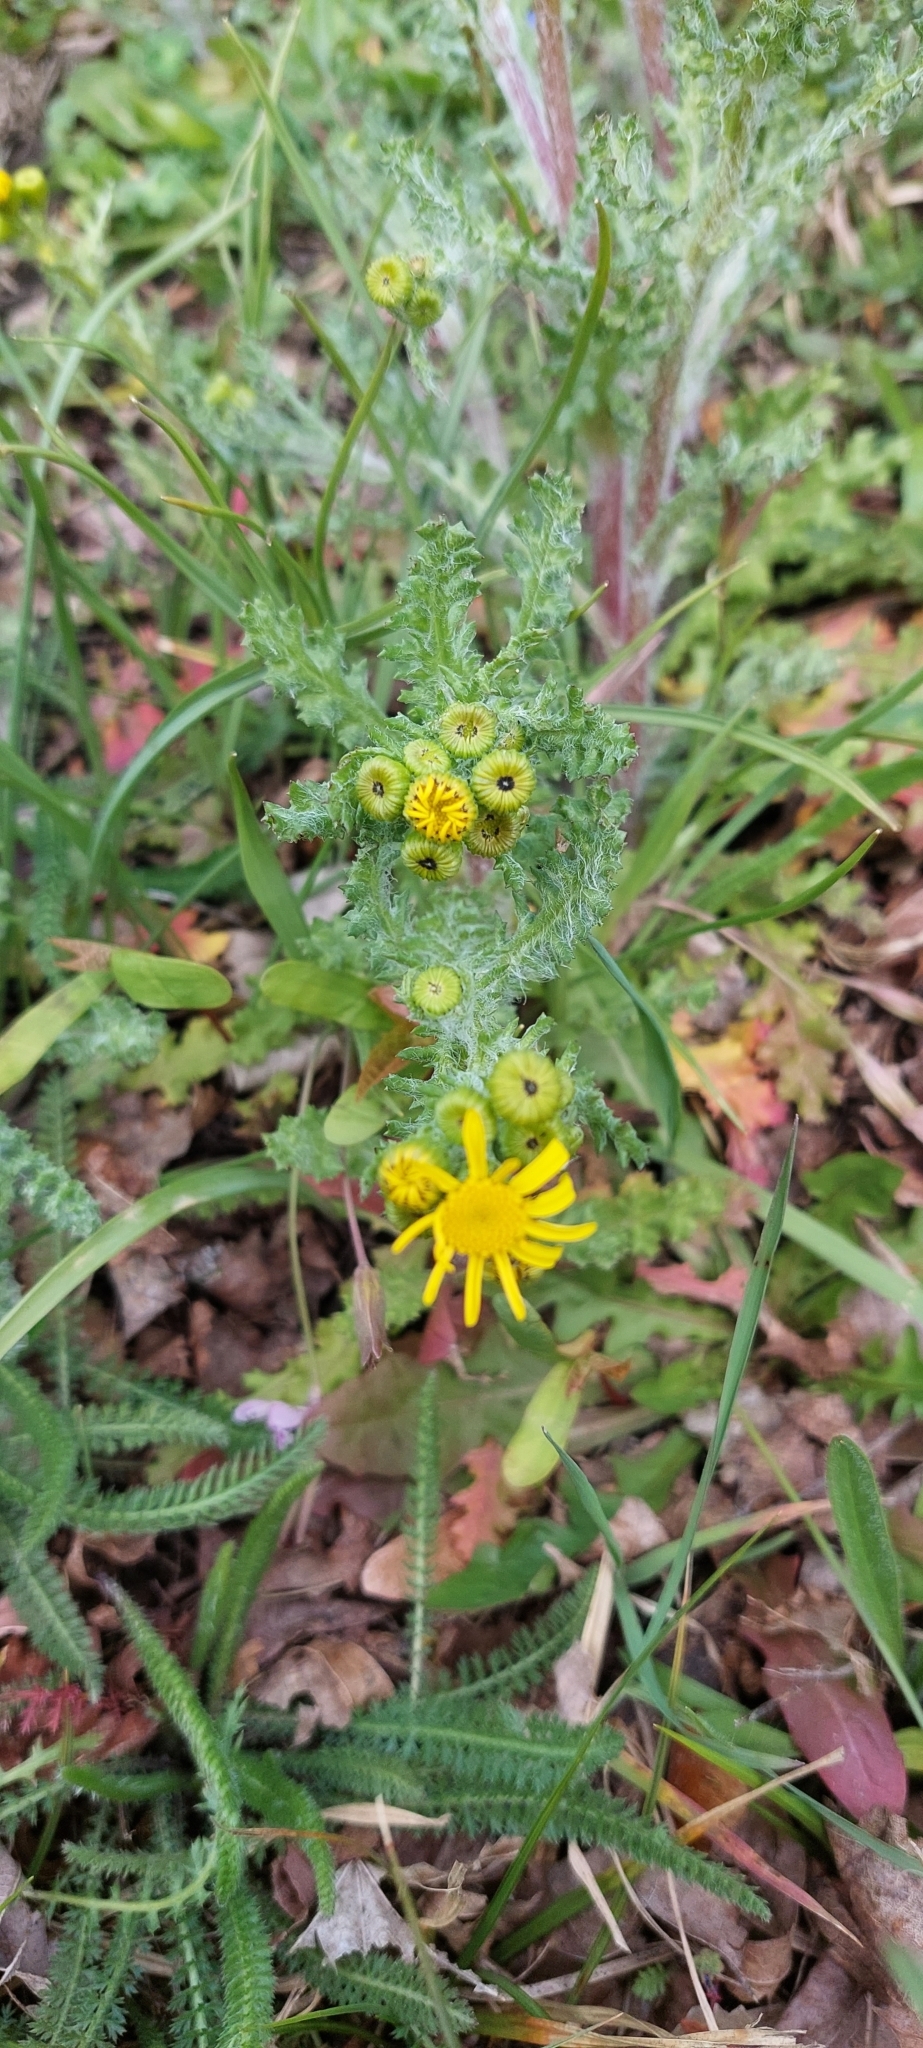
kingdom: Plantae
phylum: Tracheophyta
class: Magnoliopsida
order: Asterales
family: Asteraceae
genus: Senecio
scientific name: Senecio vernalis
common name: Eastern groundsel
